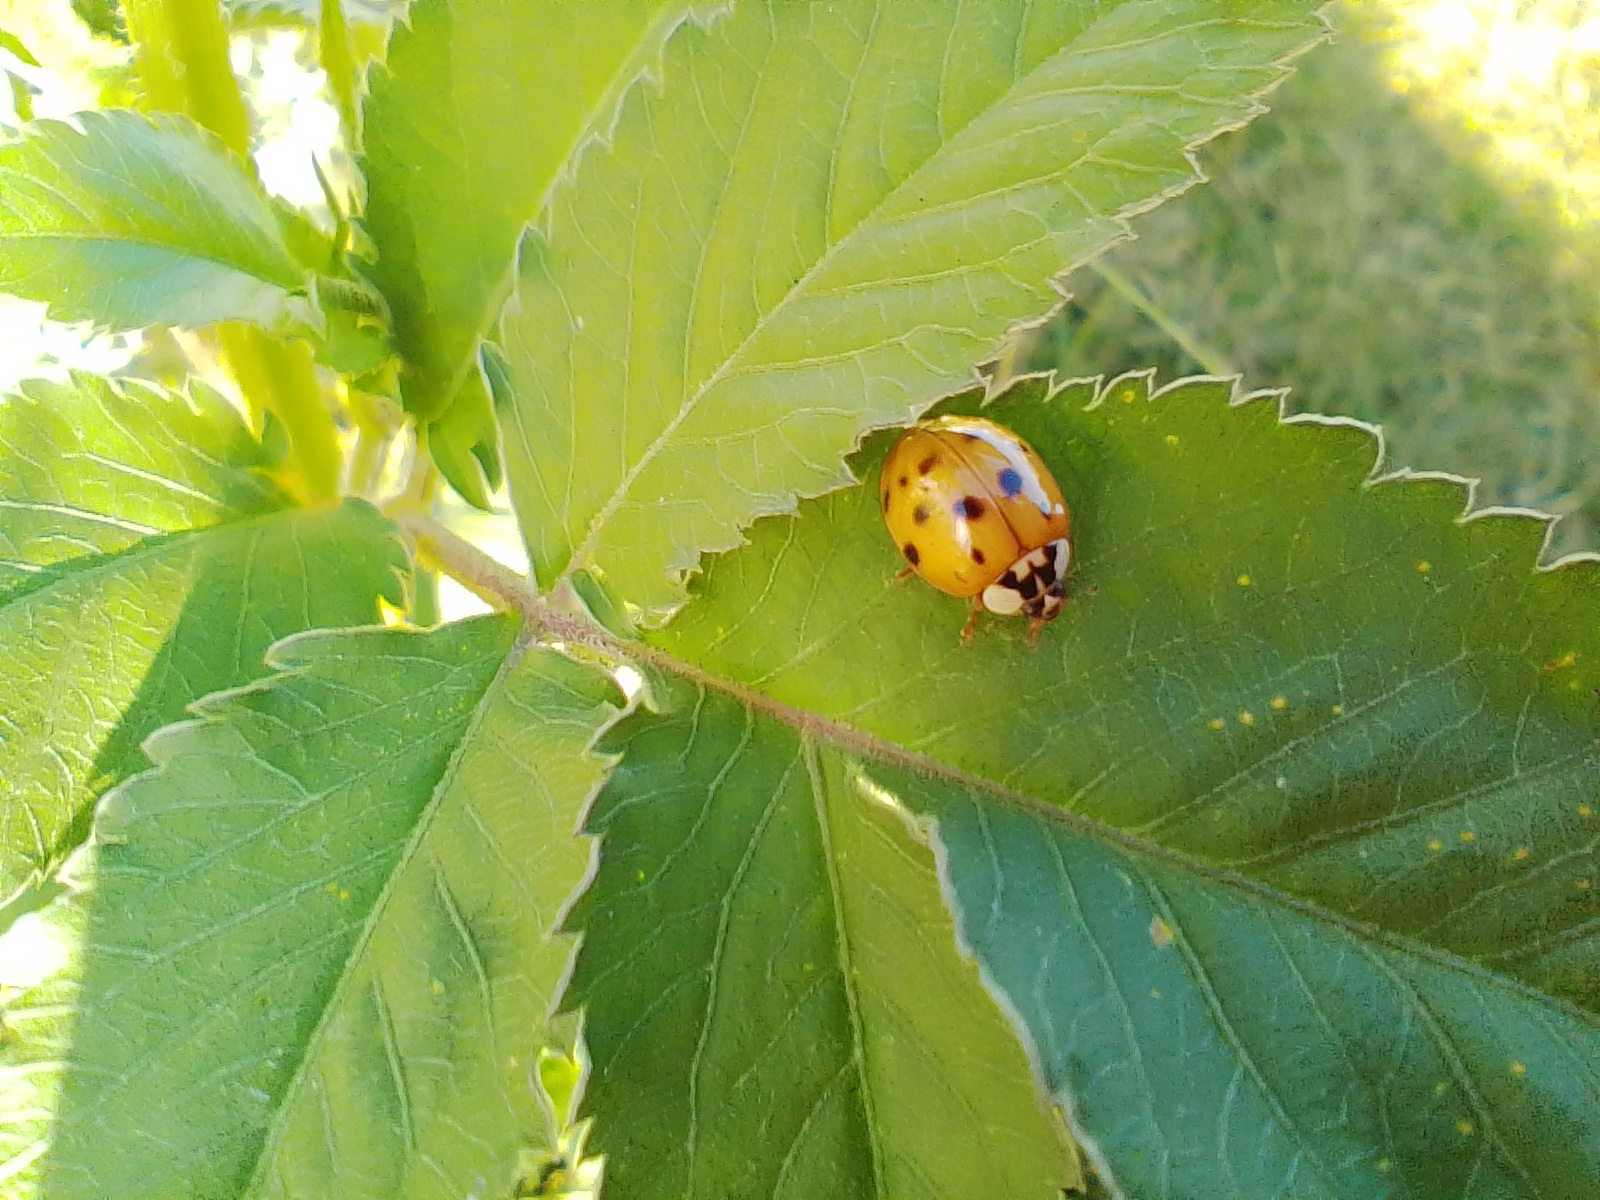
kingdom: Animalia
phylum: Arthropoda
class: Insecta
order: Coleoptera
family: Coccinellidae
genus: Harmonia
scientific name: Harmonia axyridis
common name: Harlequin ladybird
